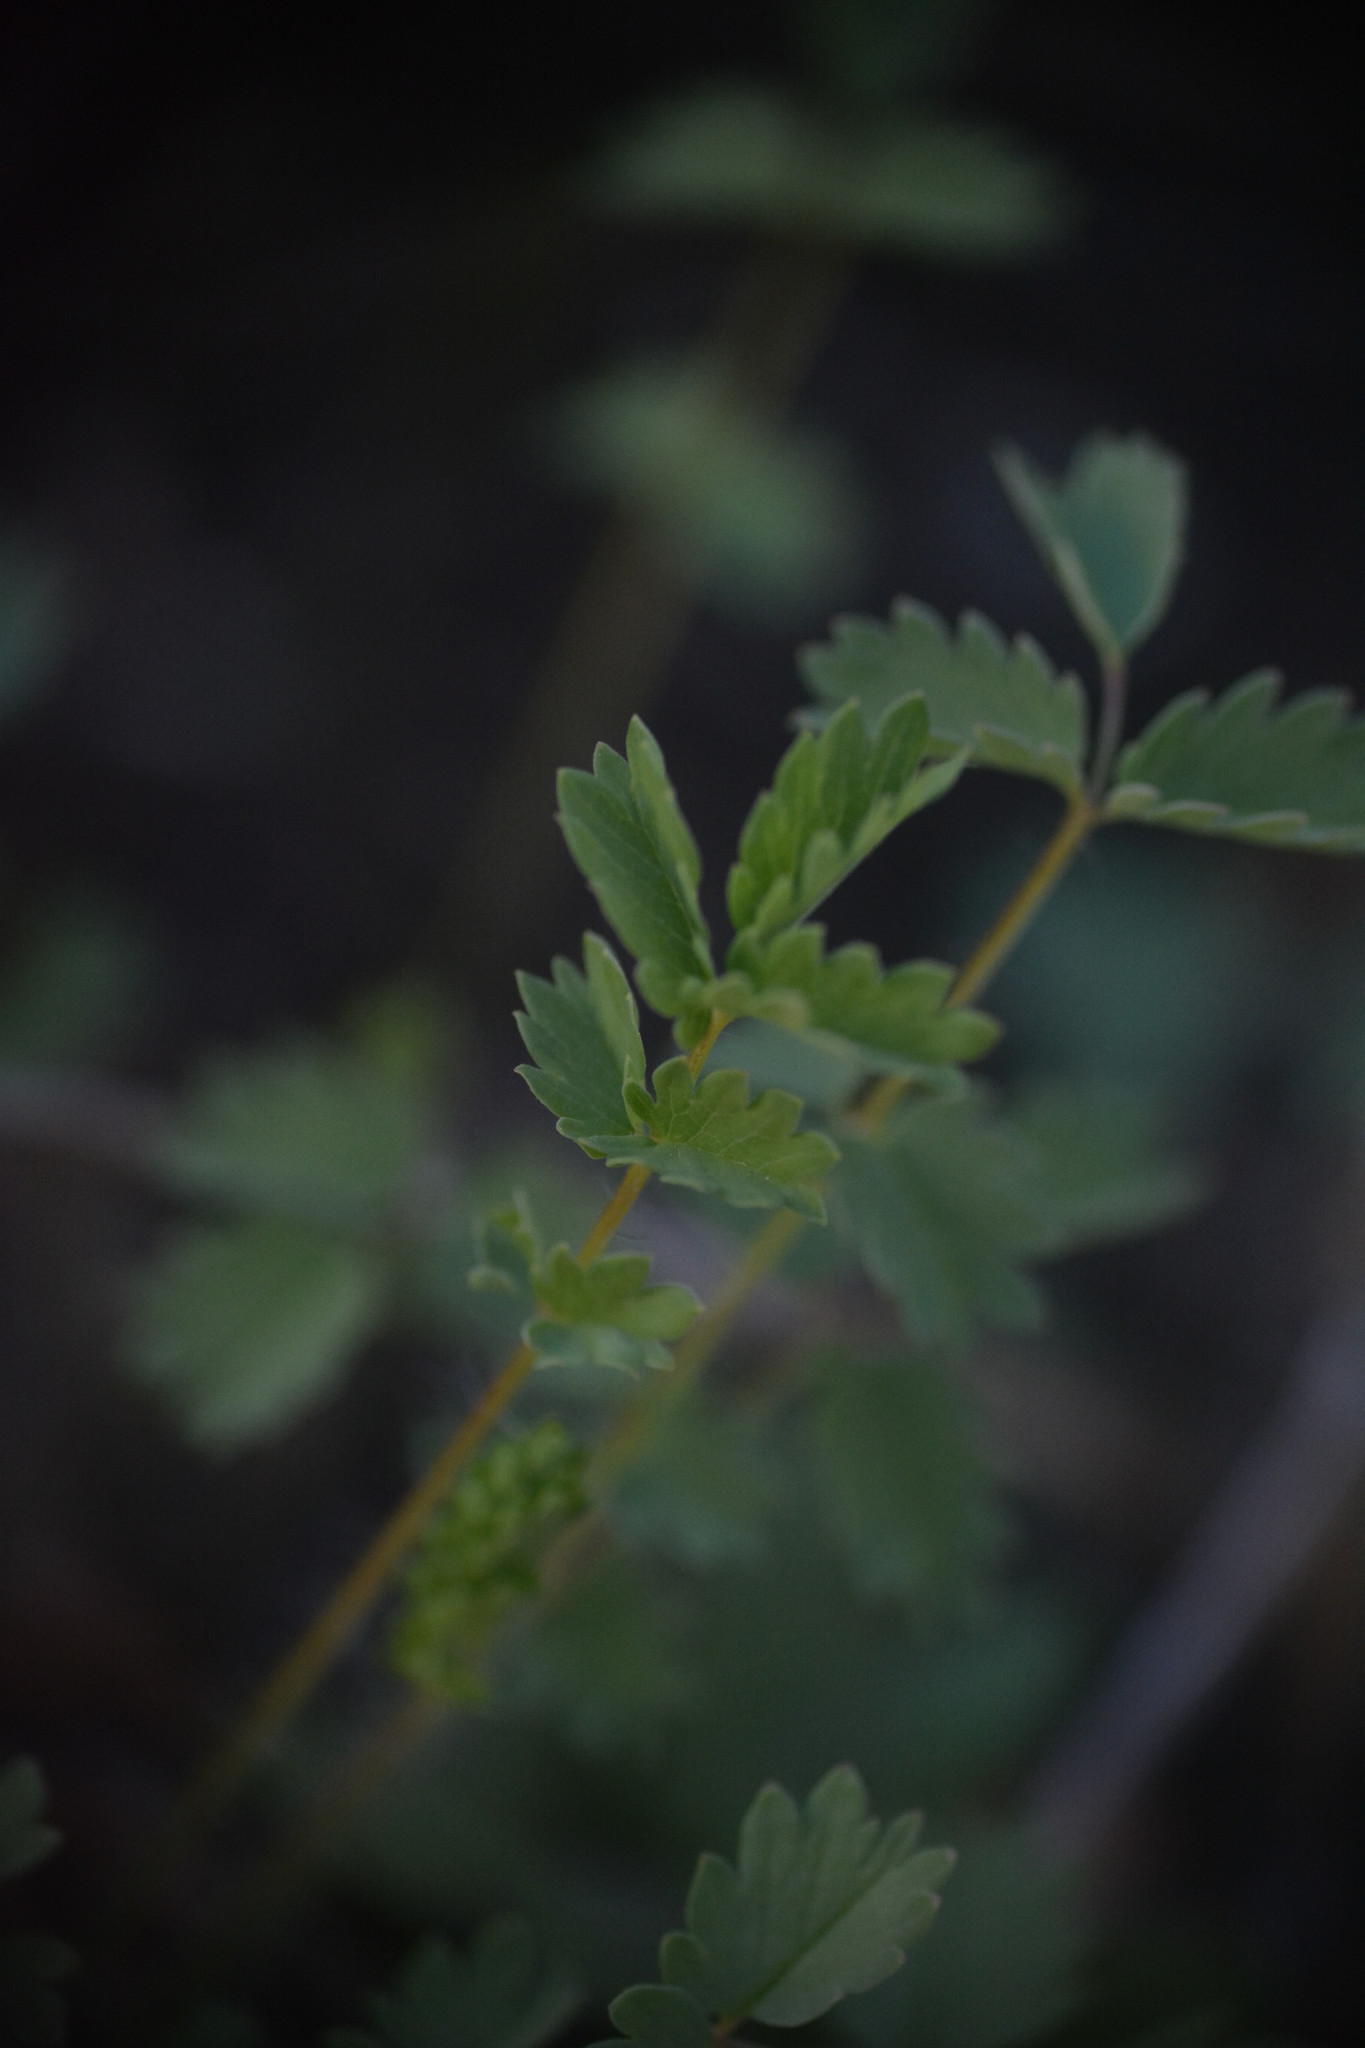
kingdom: Plantae
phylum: Tracheophyta
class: Magnoliopsida
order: Rosales
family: Rosaceae
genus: Poterium
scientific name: Poterium sanguisorba
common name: Salad burnet
